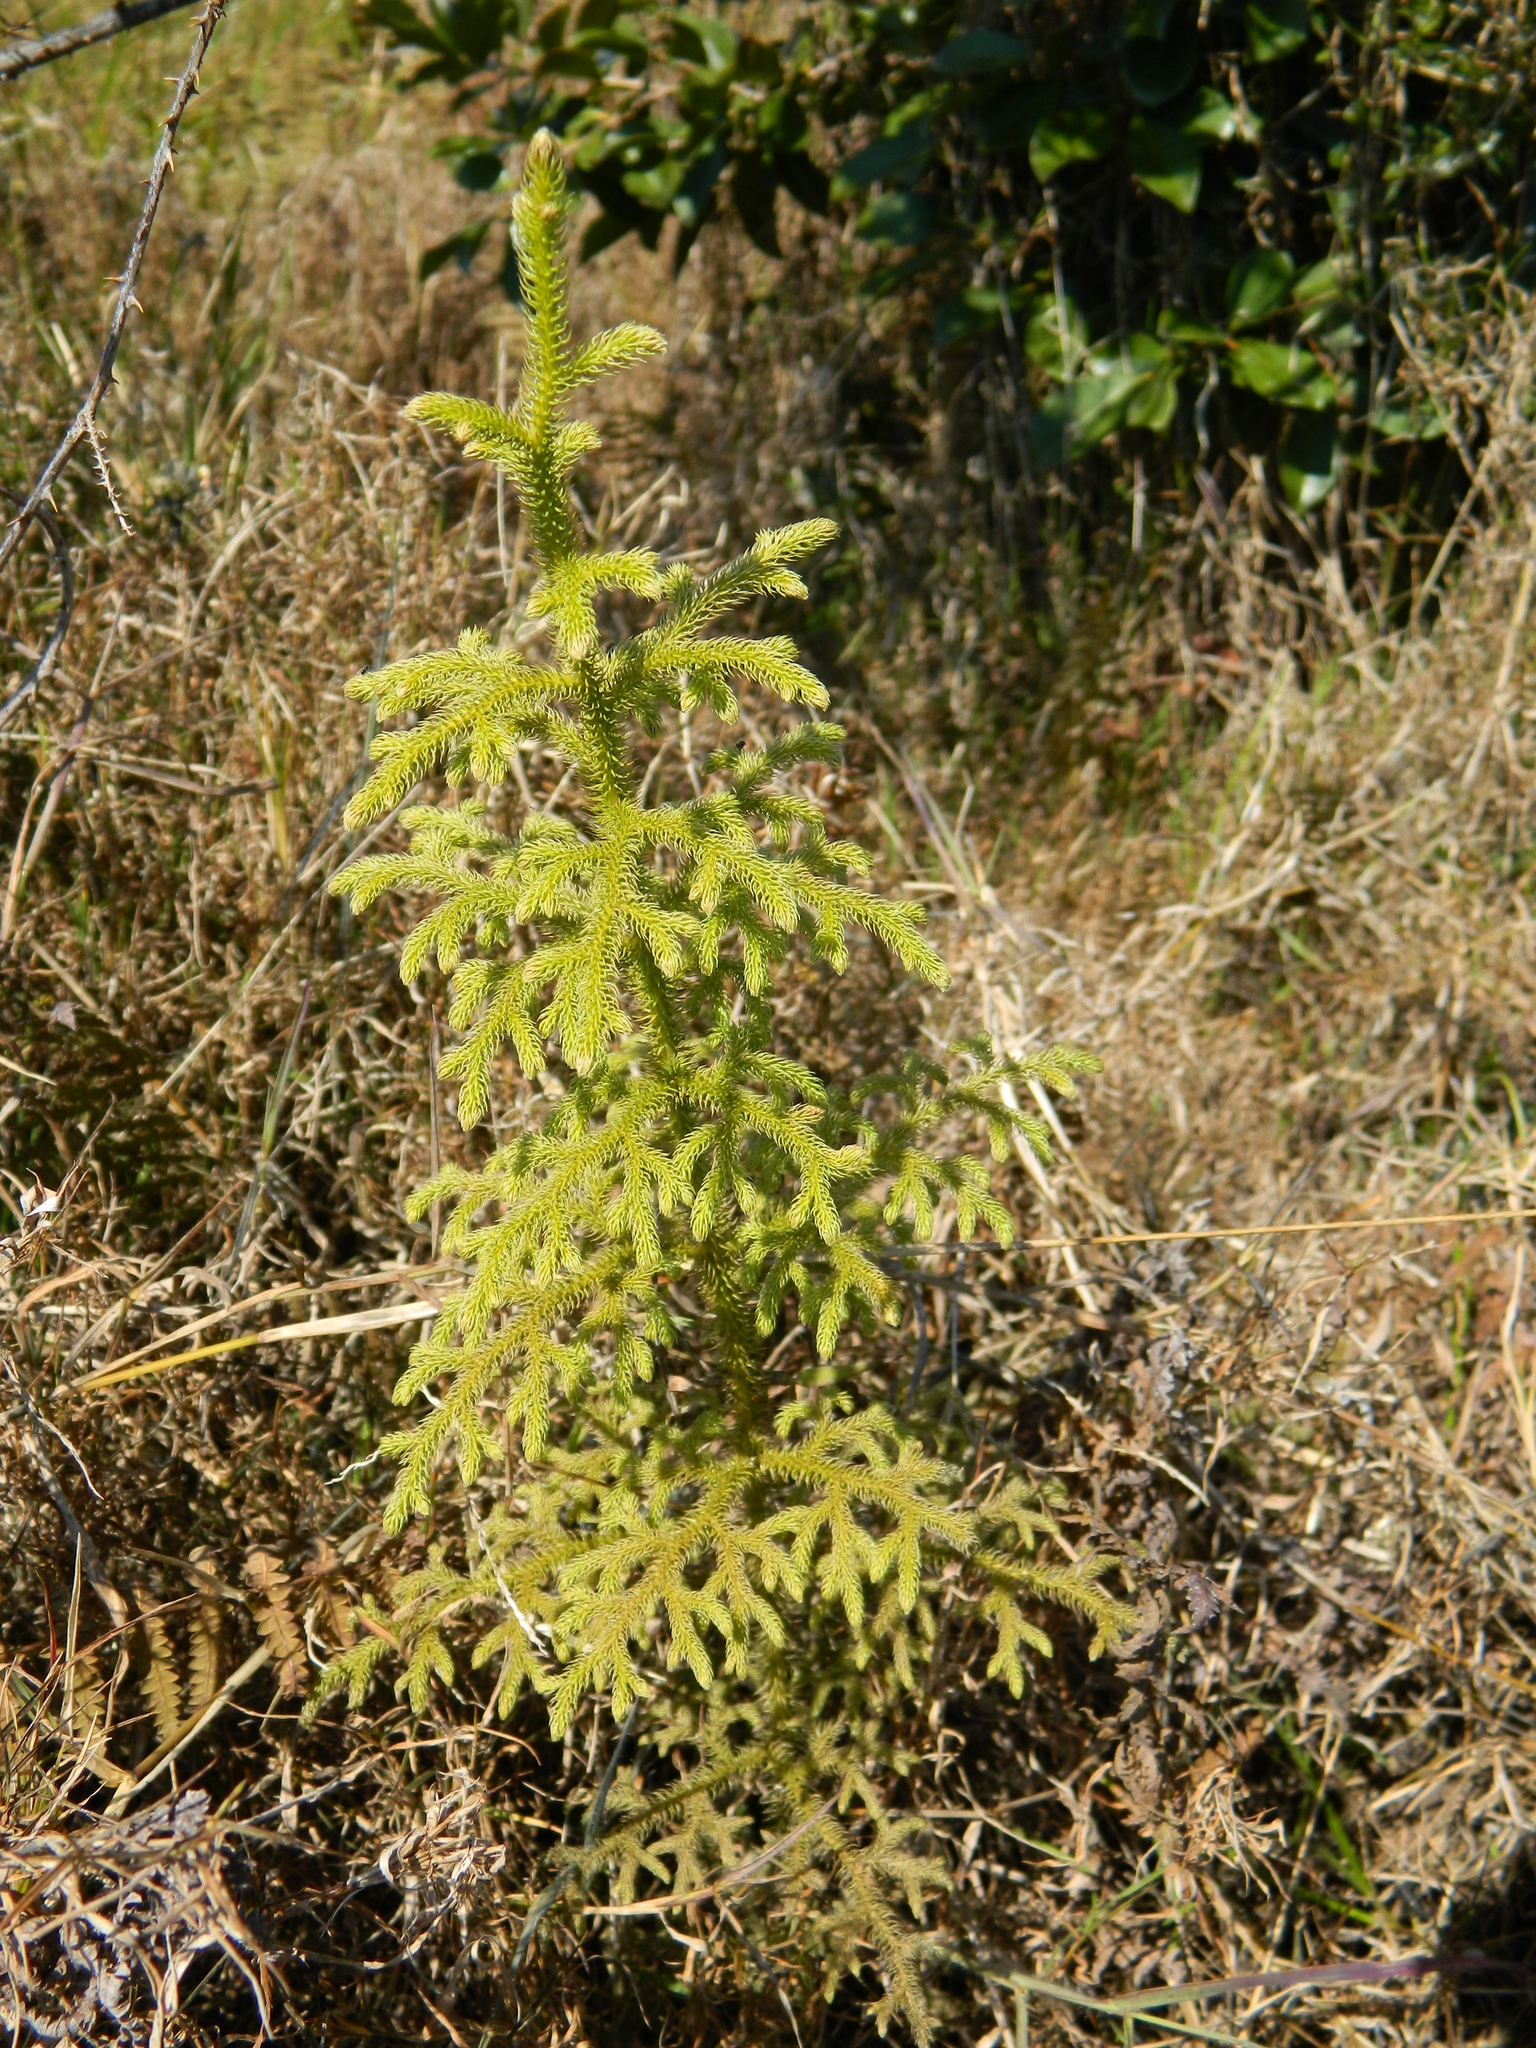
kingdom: Plantae
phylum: Tracheophyta
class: Lycopodiopsida
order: Lycopodiales
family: Lycopodiaceae
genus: Palhinhaea
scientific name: Palhinhaea cernua
